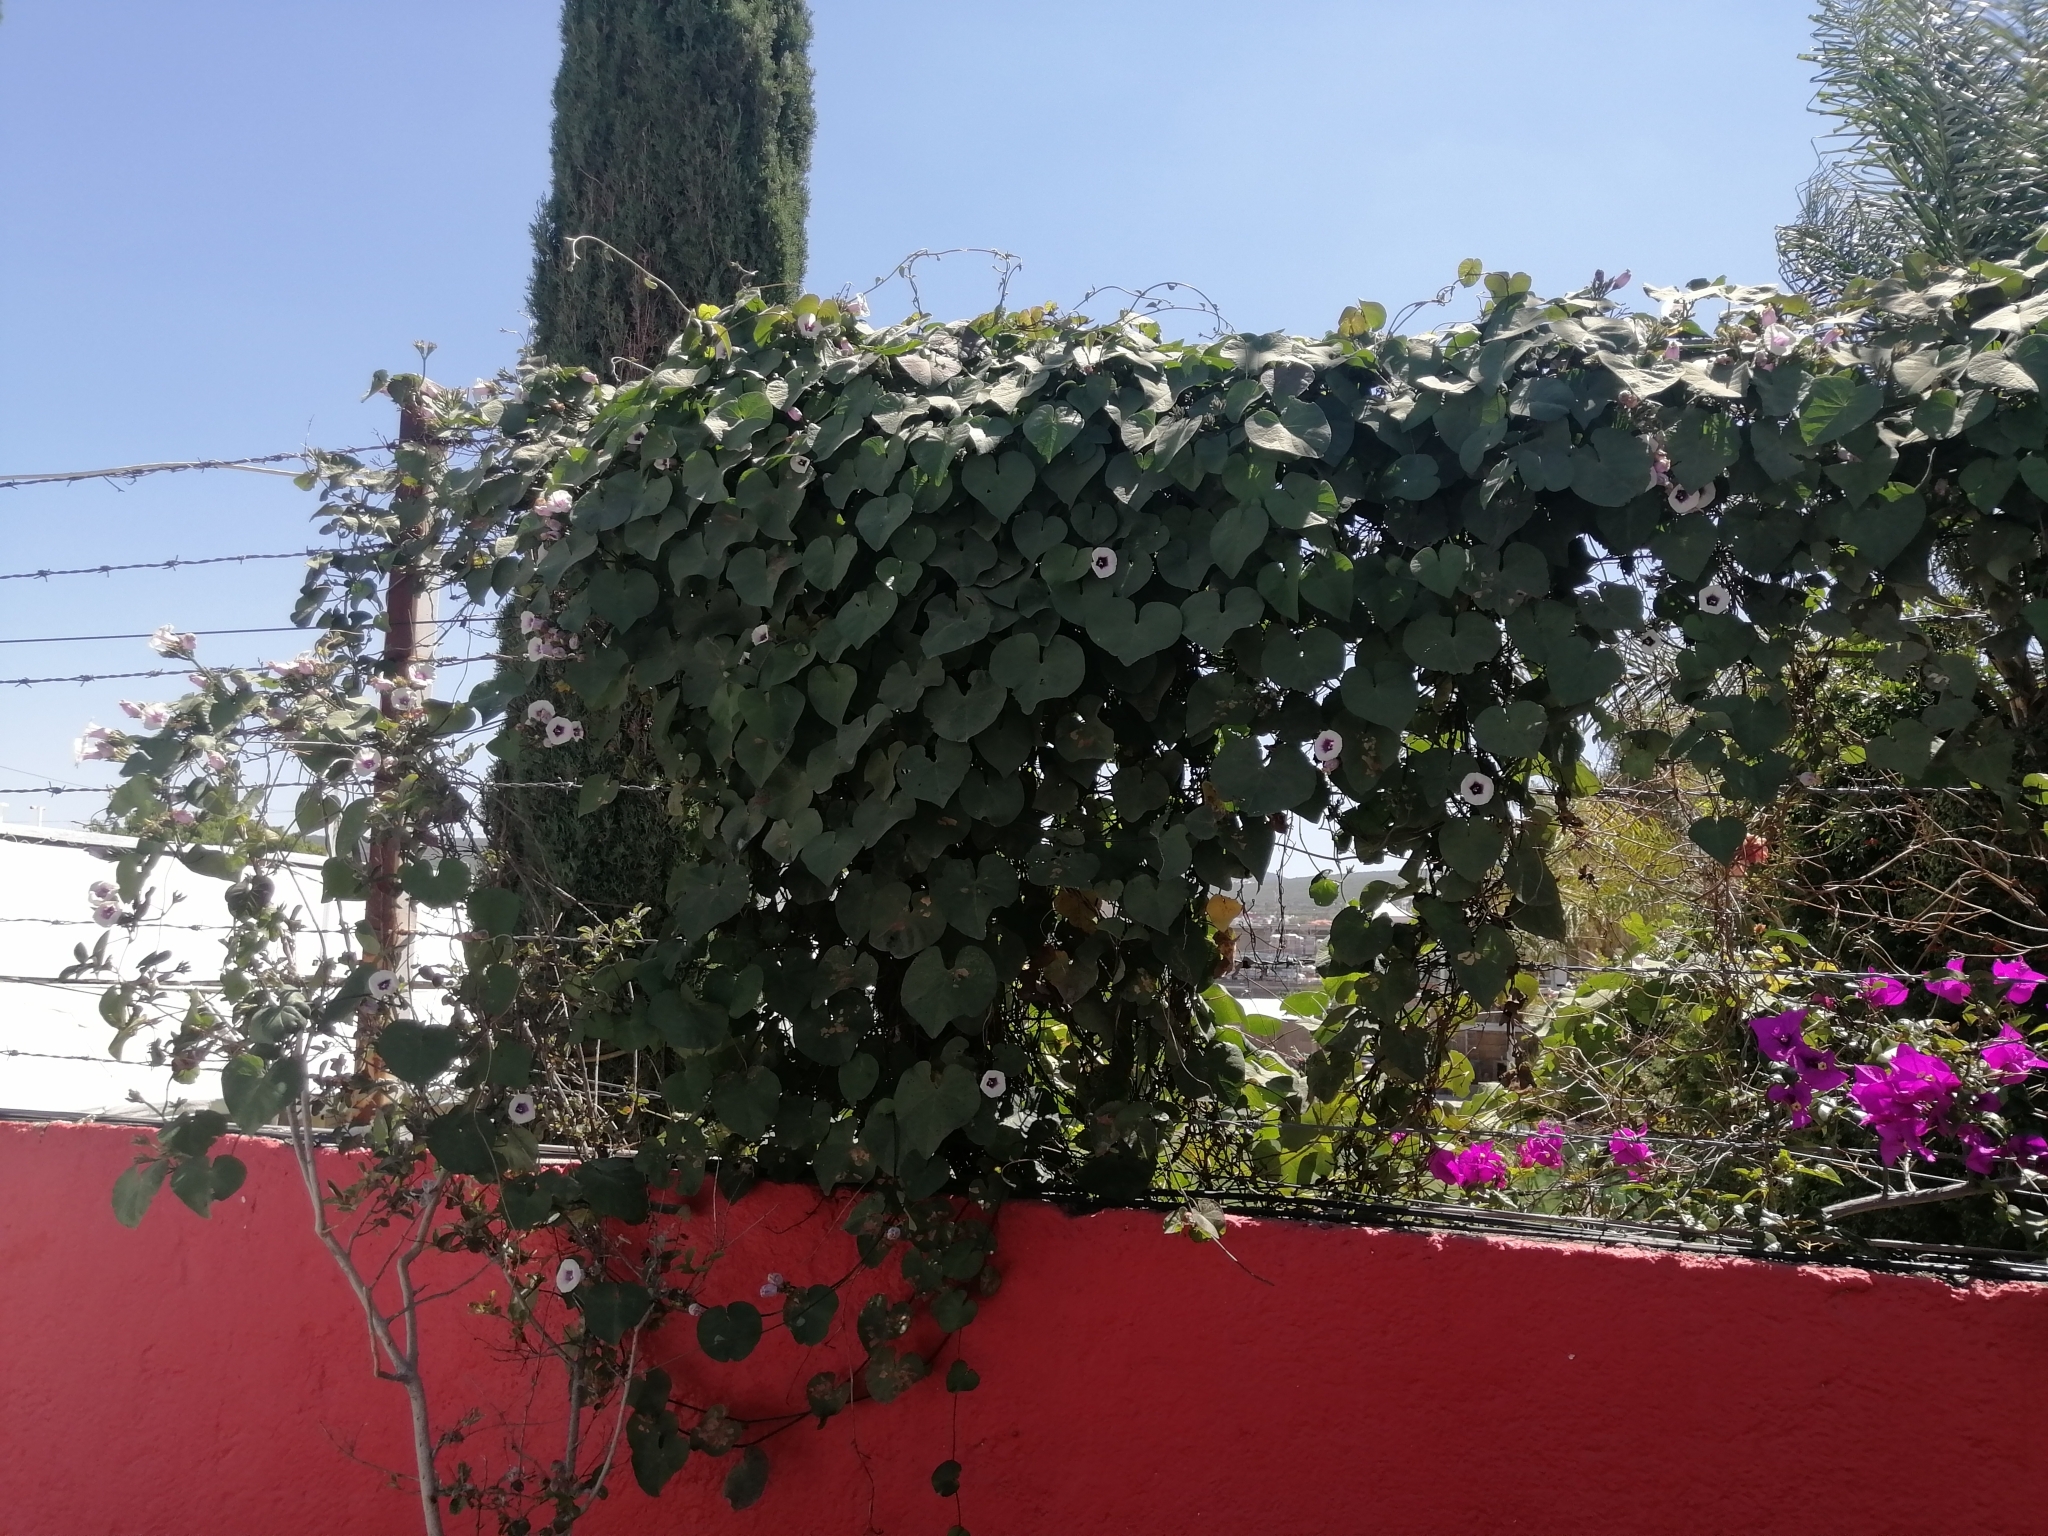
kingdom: Plantae
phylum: Tracheophyta
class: Magnoliopsida
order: Solanales
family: Convolvulaceae
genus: Ipomoea
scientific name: Ipomoea batatas
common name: Sweet-potato
